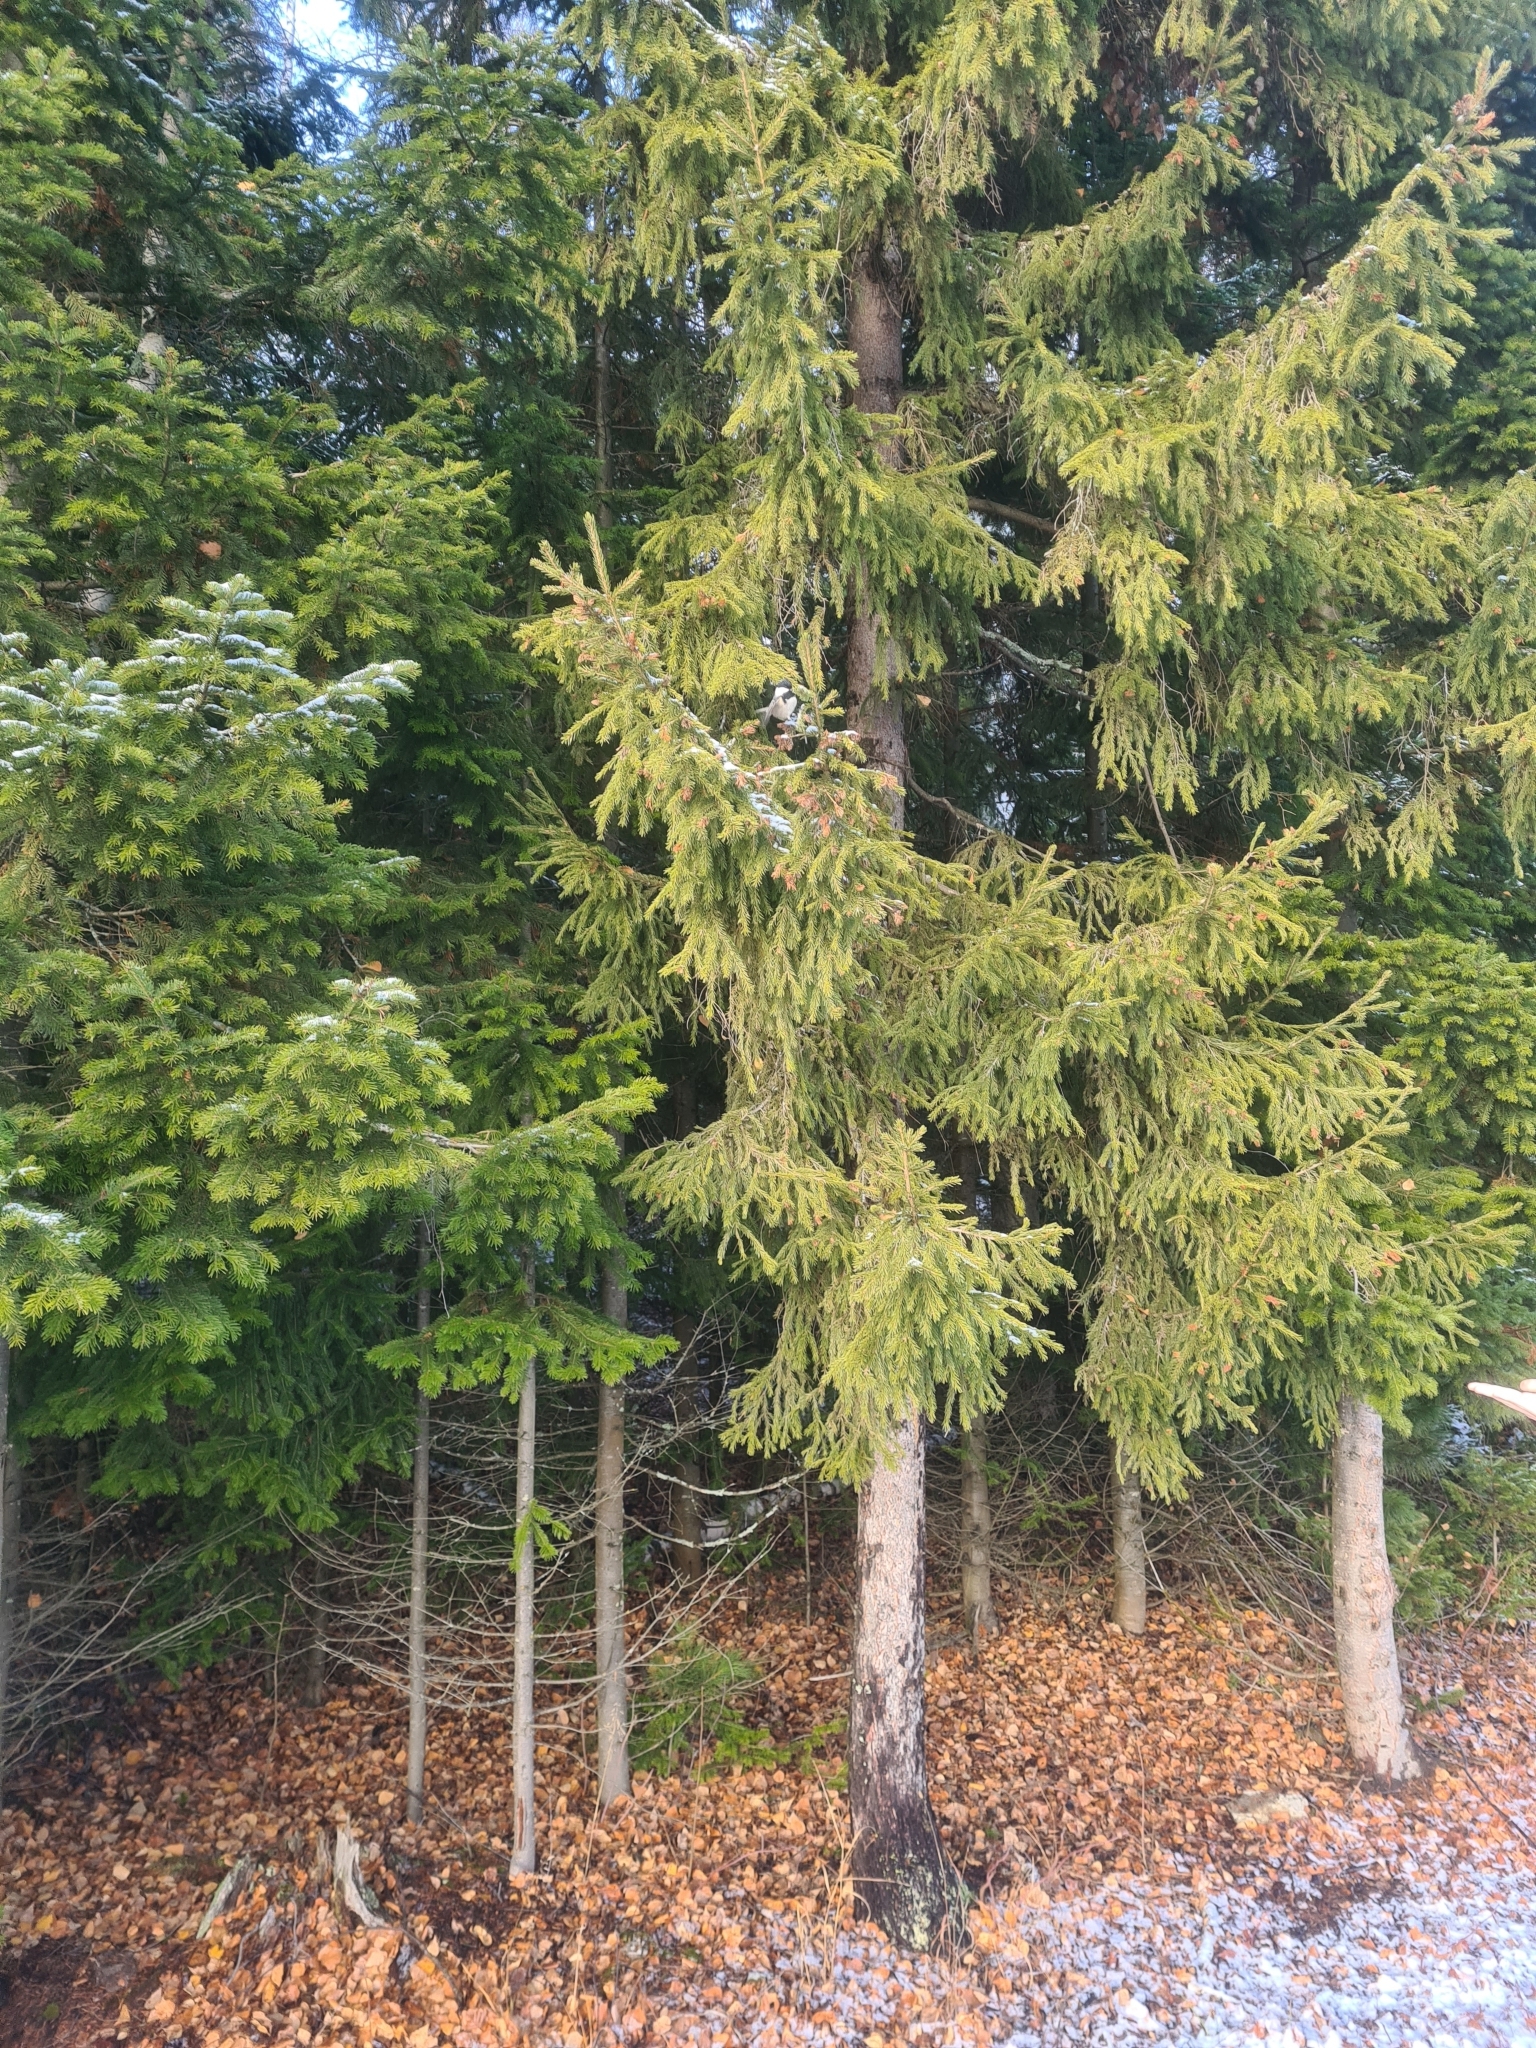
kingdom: Animalia
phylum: Chordata
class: Aves
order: Passeriformes
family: Paridae
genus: Periparus
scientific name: Periparus ater
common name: Coal tit
